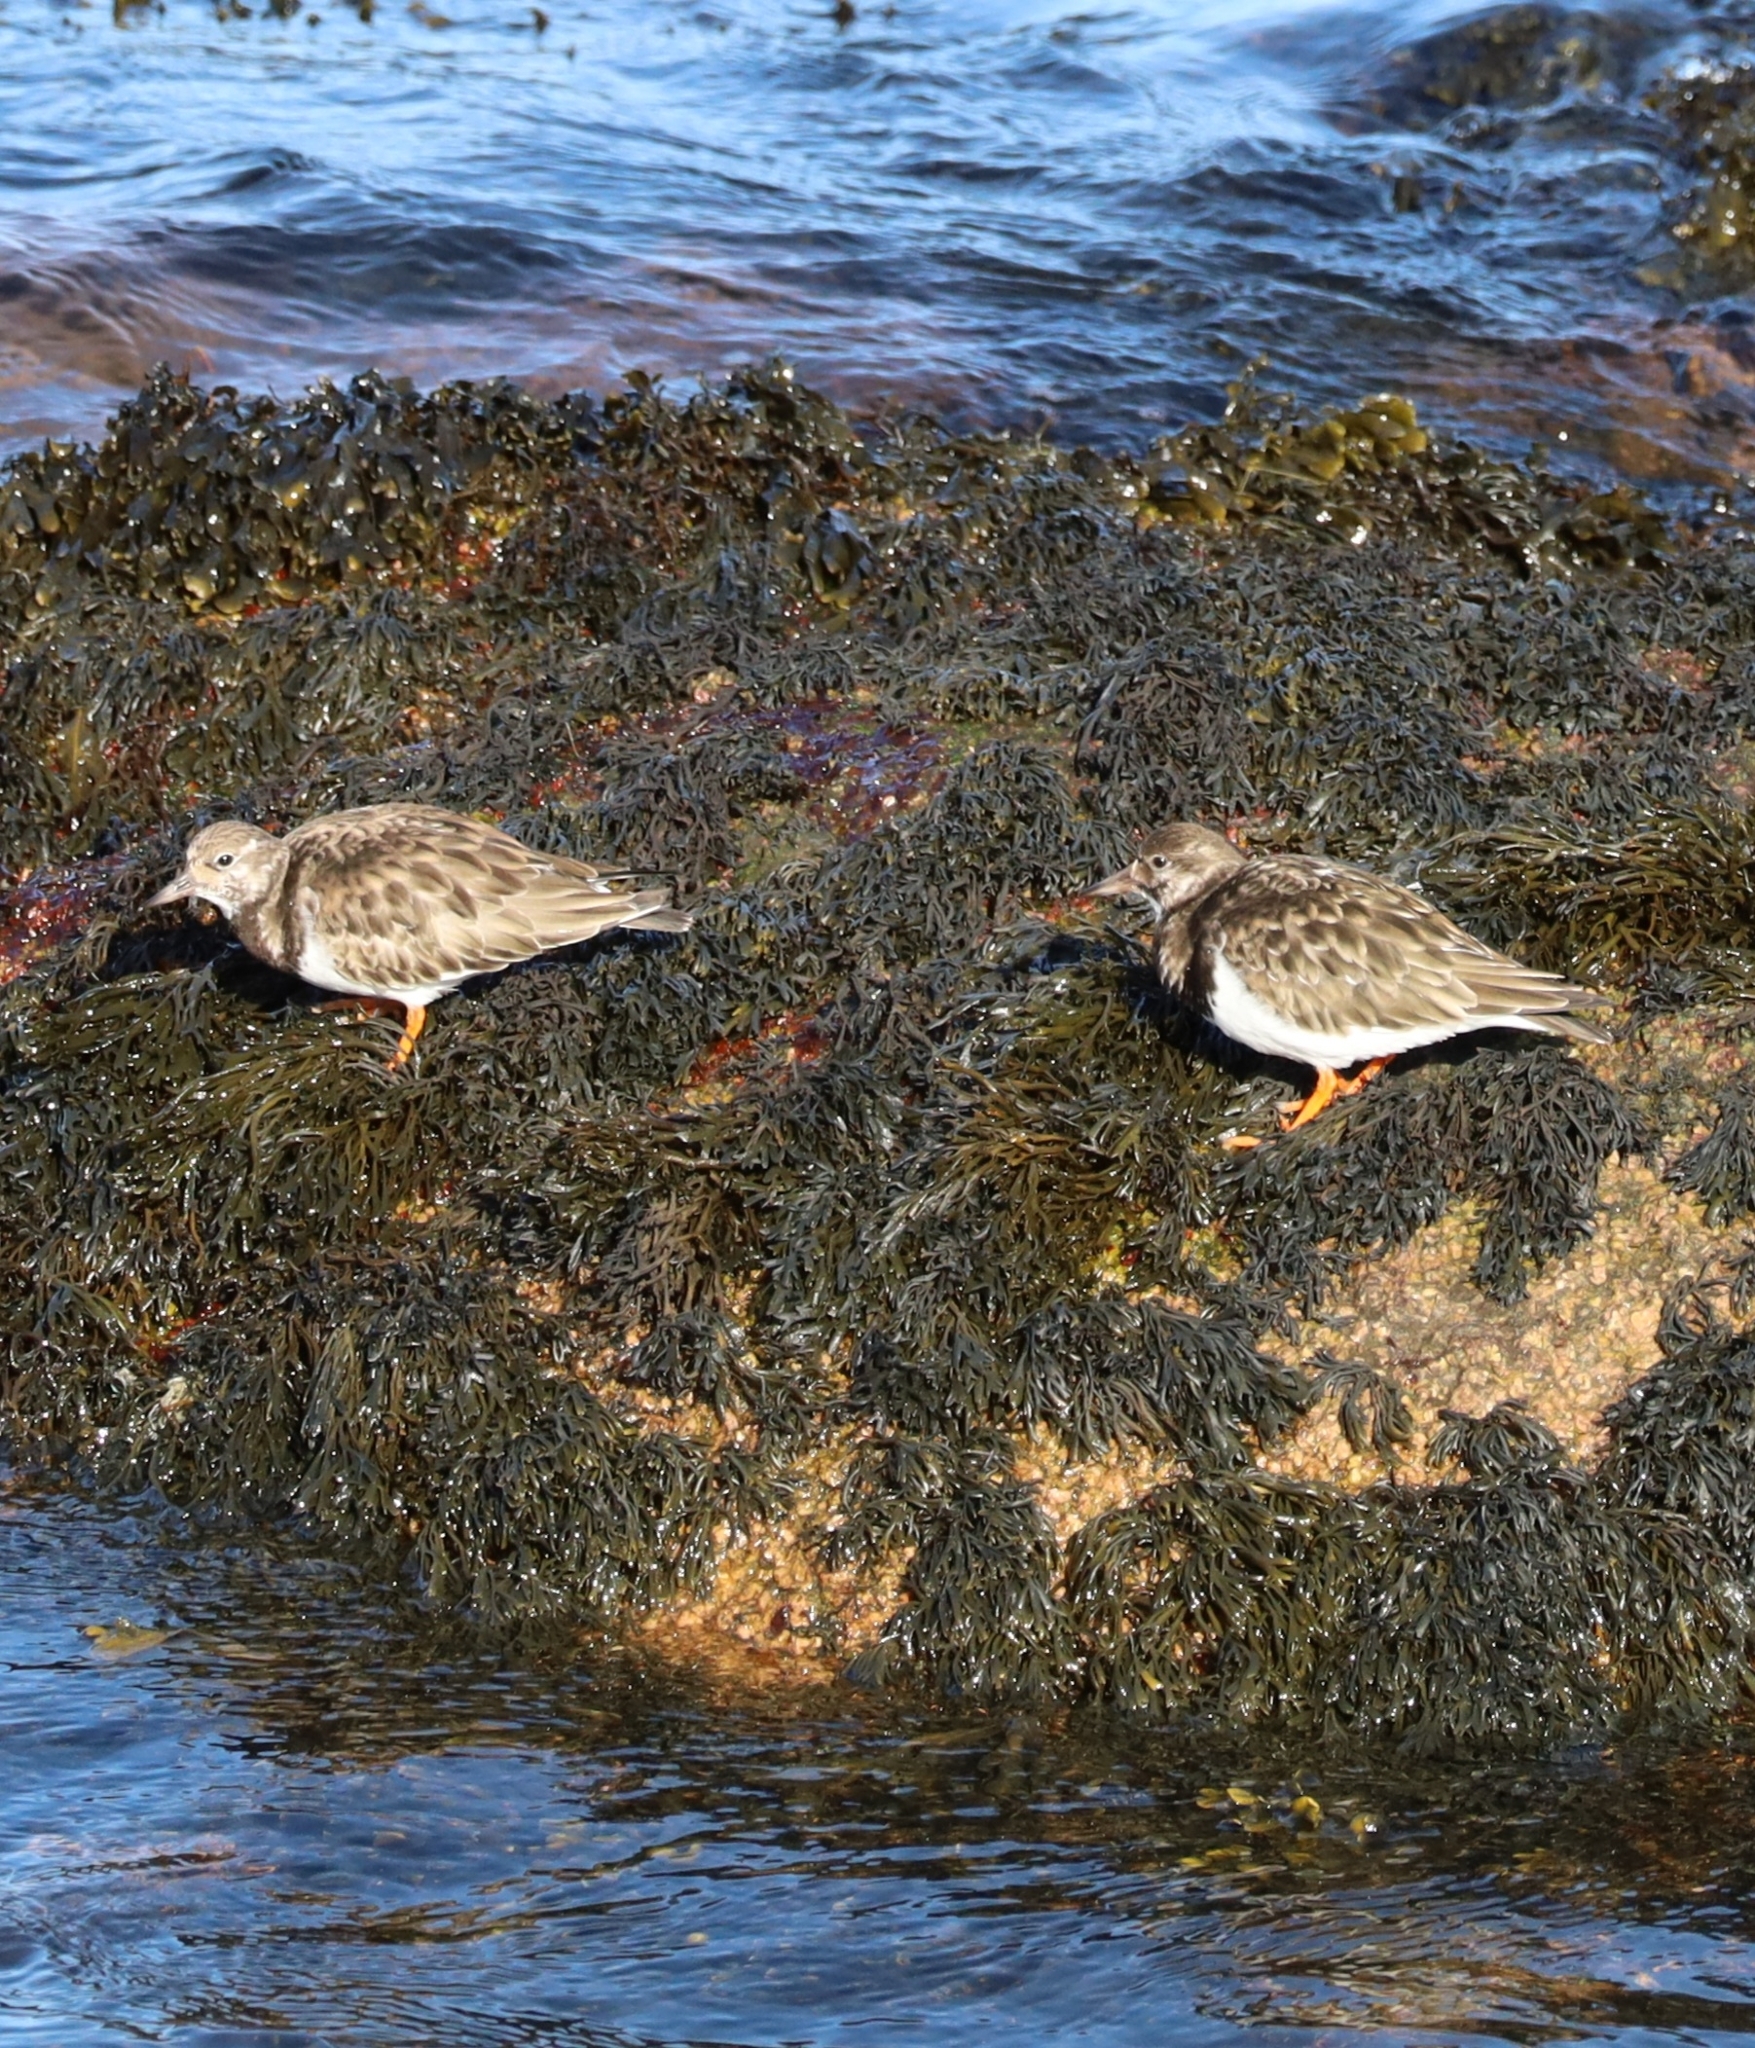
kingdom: Animalia
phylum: Chordata
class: Aves
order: Charadriiformes
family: Scolopacidae
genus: Arenaria
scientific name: Arenaria interpres
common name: Ruddy turnstone
